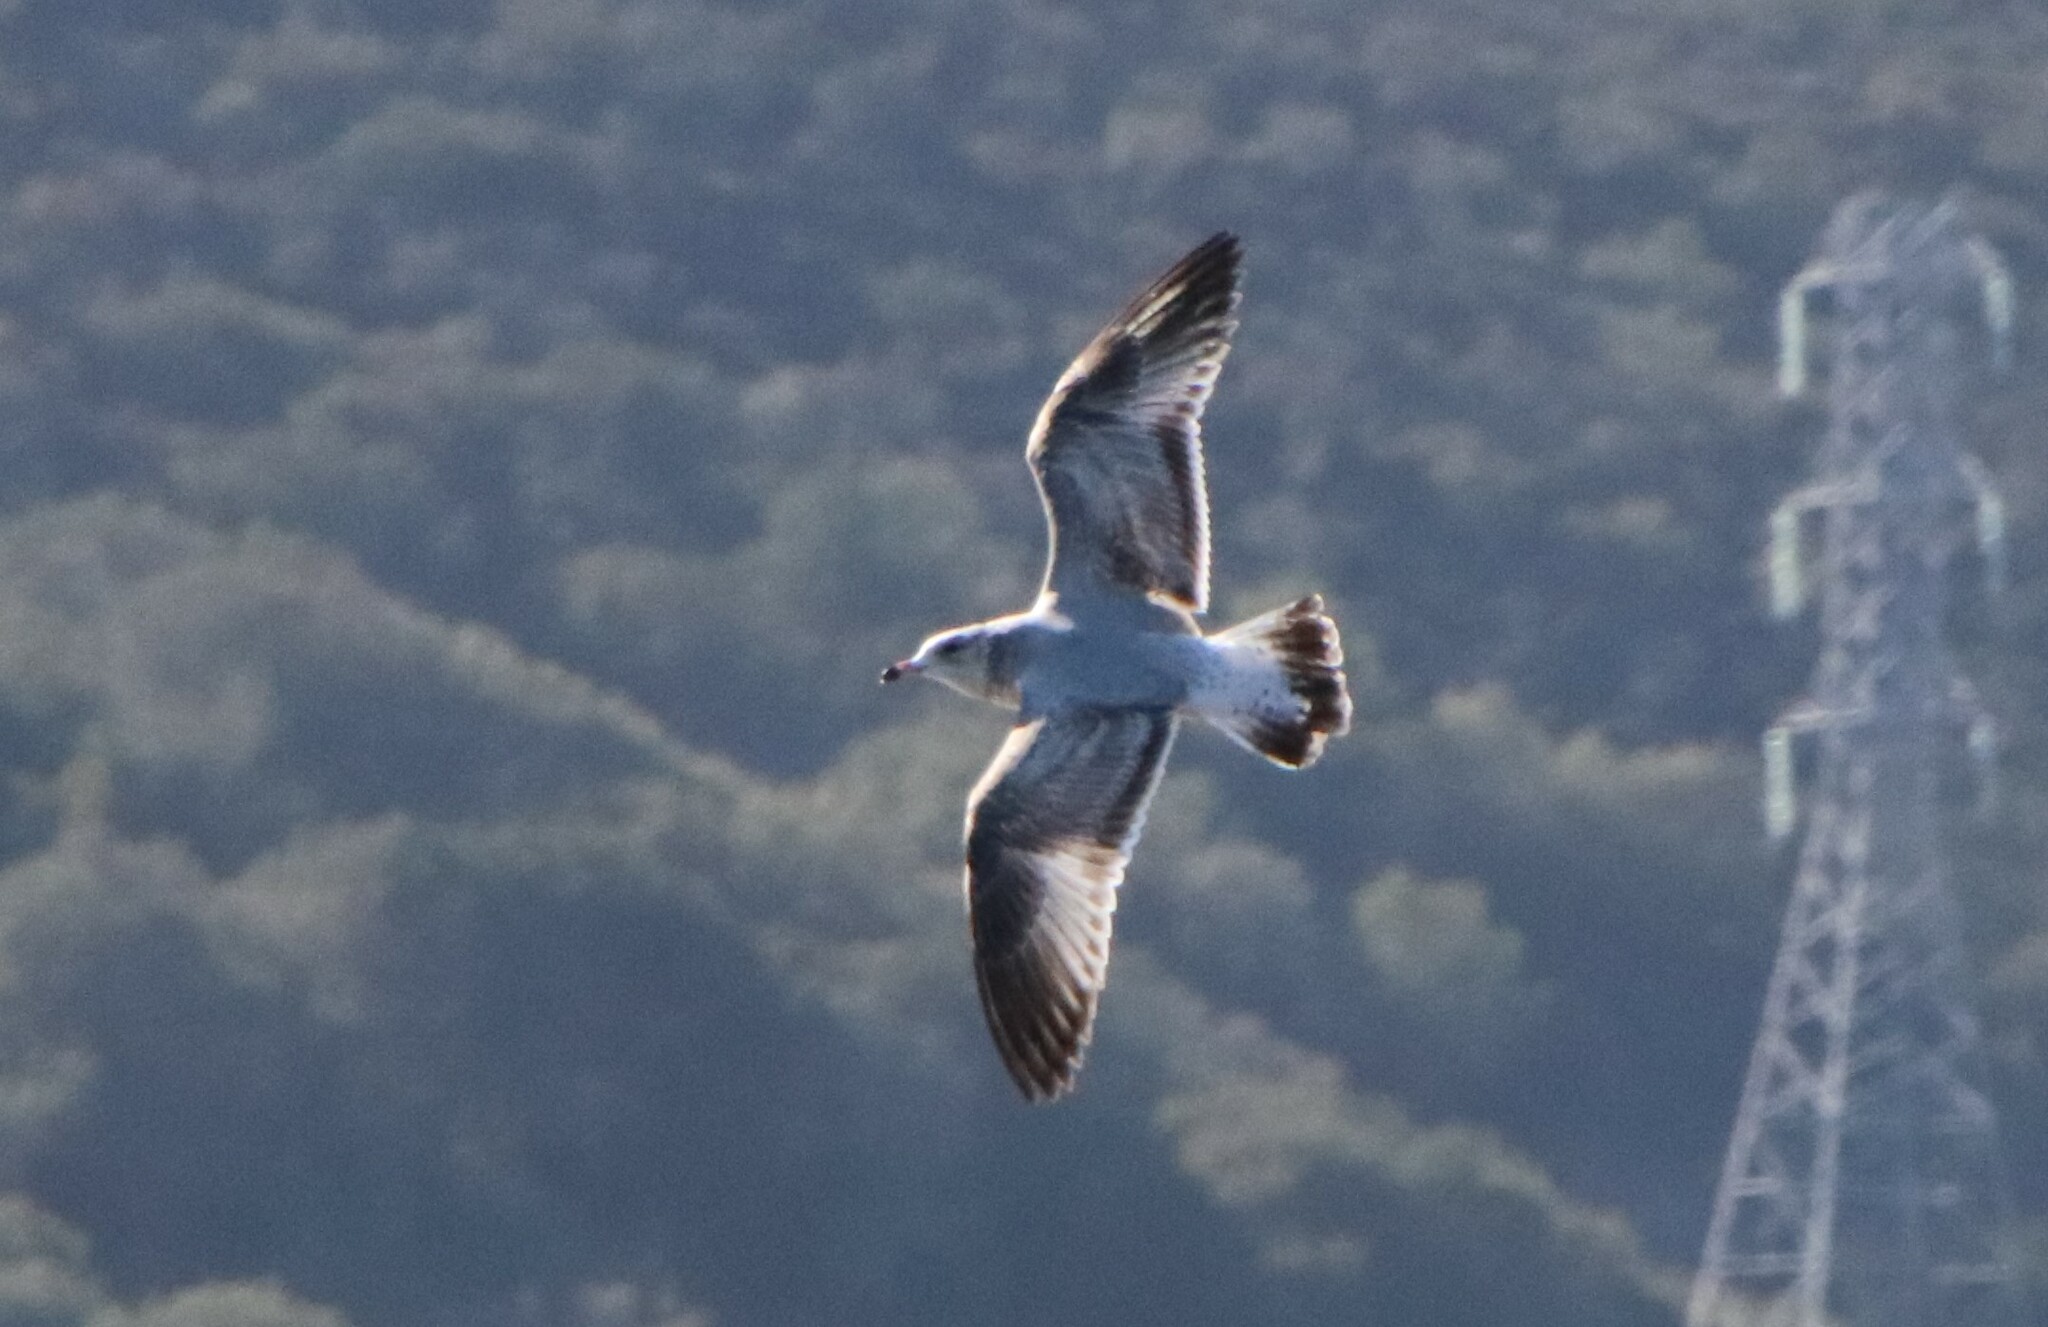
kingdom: Animalia
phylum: Chordata
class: Aves
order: Charadriiformes
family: Laridae
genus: Larus
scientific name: Larus delawarensis
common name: Ring-billed gull
